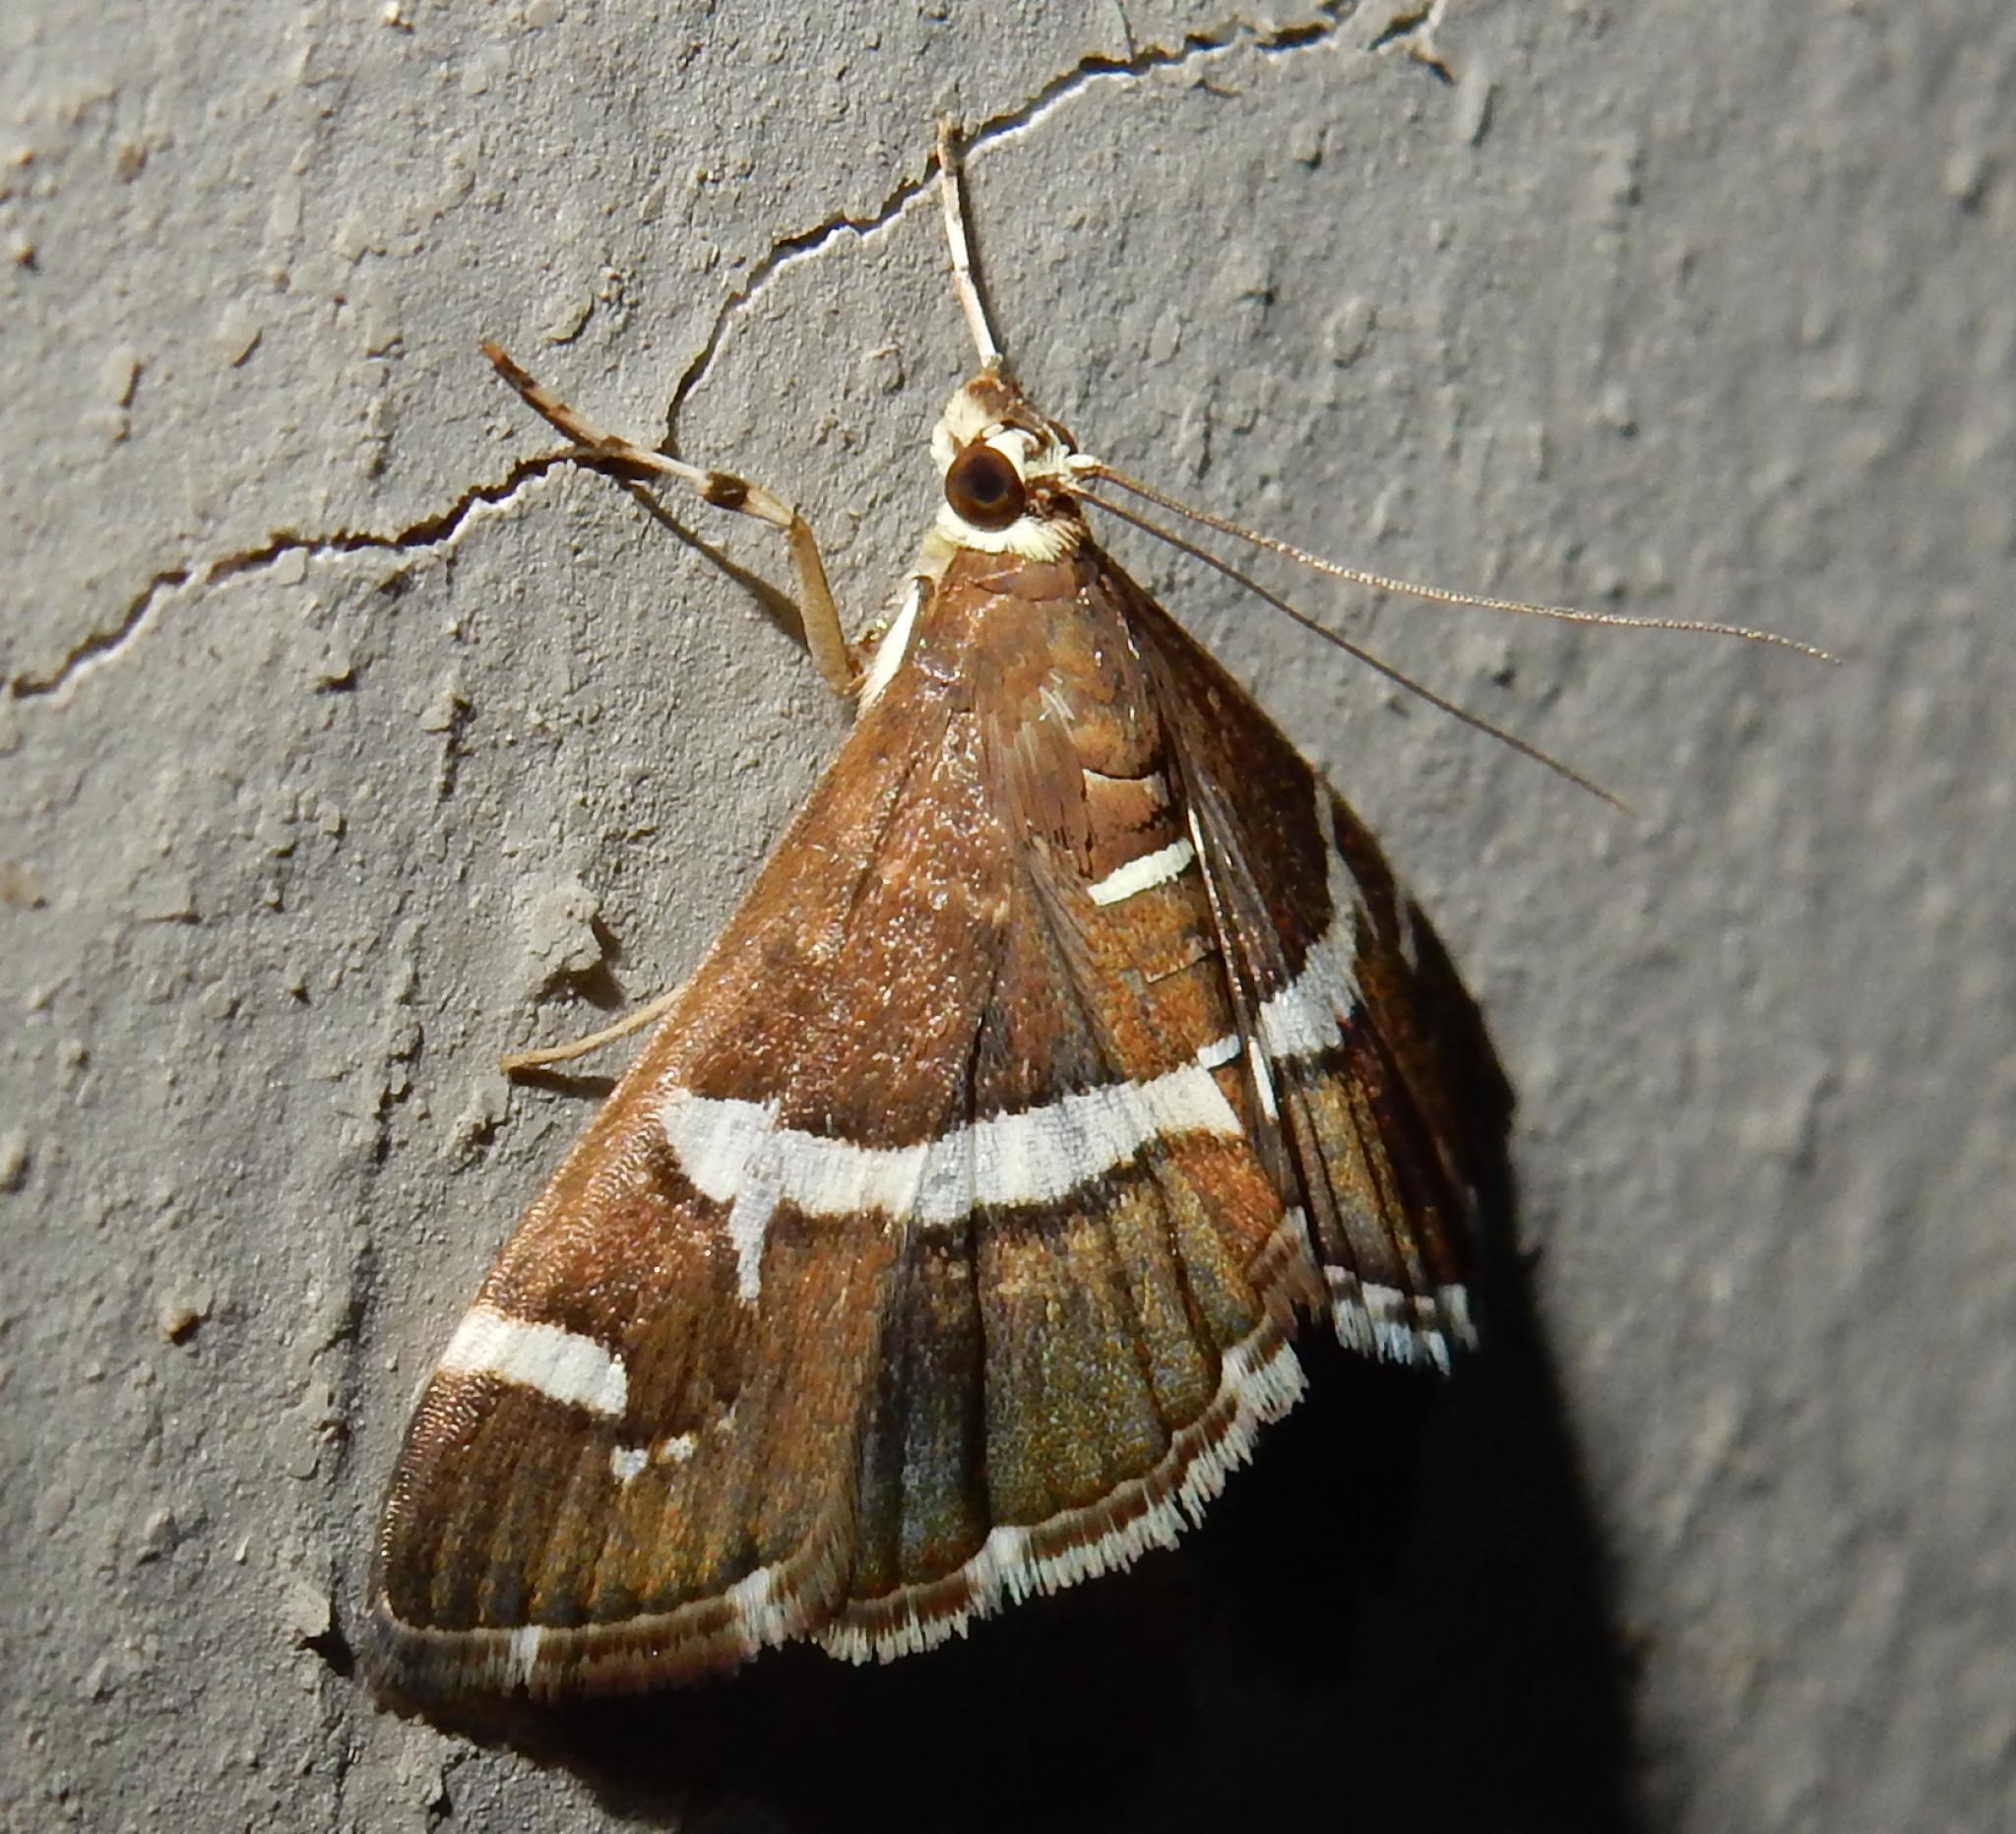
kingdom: Animalia
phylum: Arthropoda
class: Insecta
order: Lepidoptera
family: Crambidae
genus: Spoladea
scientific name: Spoladea recurvalis
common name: Beet webworm moth
